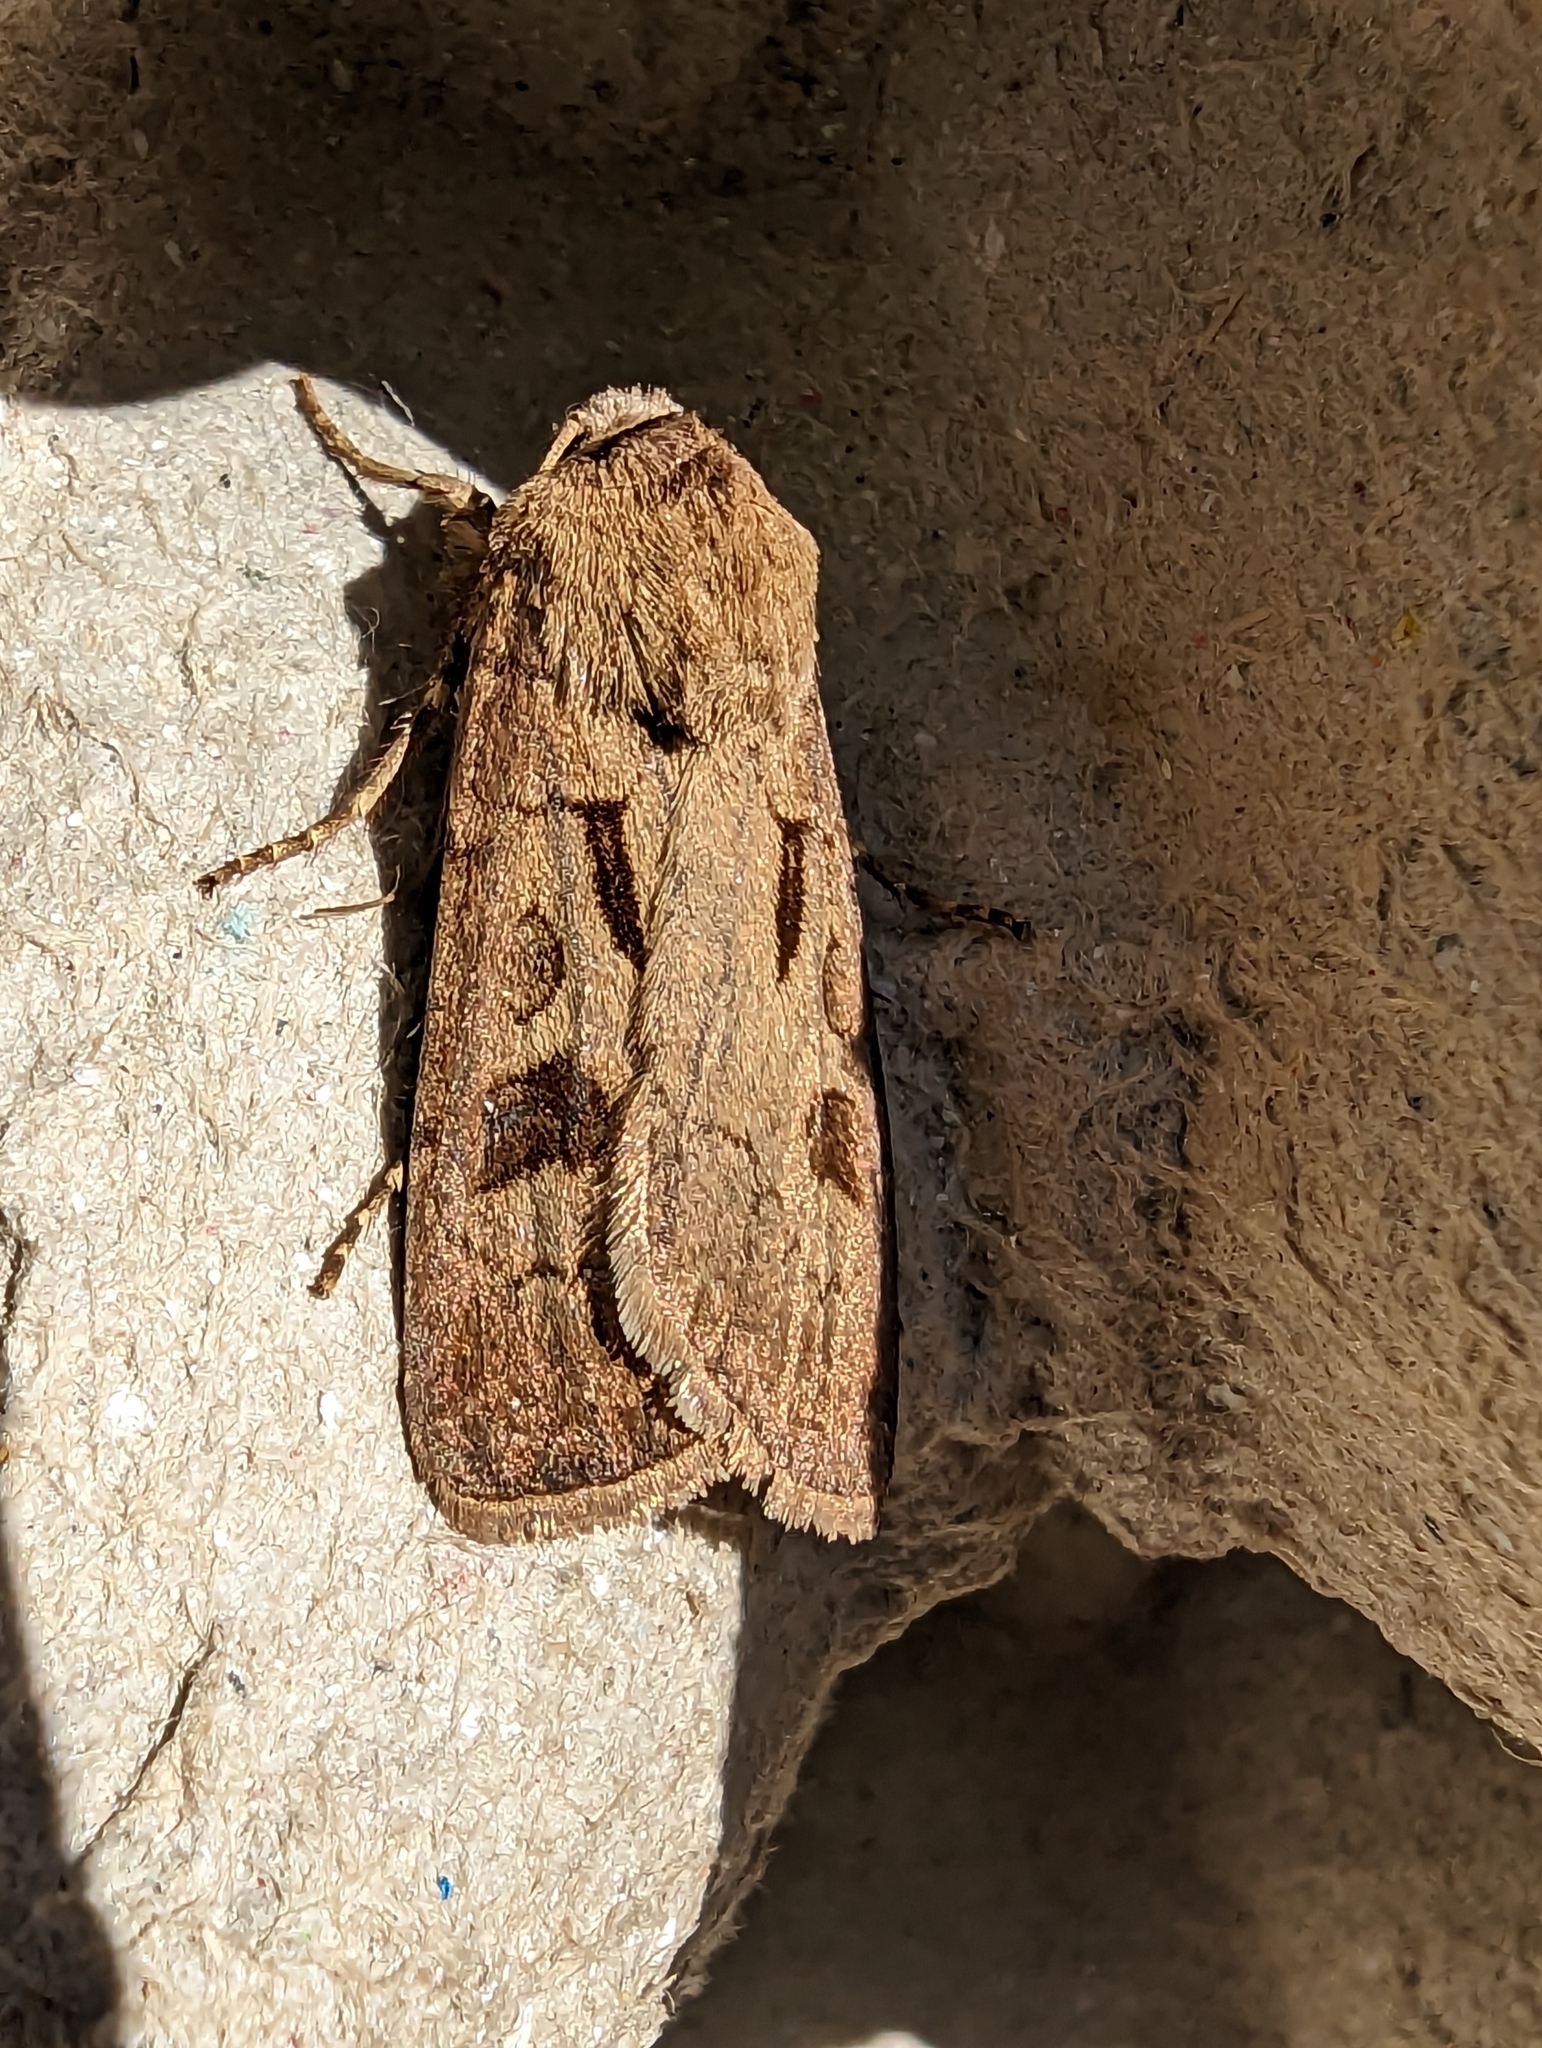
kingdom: Animalia
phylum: Arthropoda
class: Insecta
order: Lepidoptera
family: Noctuidae
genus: Agrotis
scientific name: Agrotis exclamationis
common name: Heart and dart
